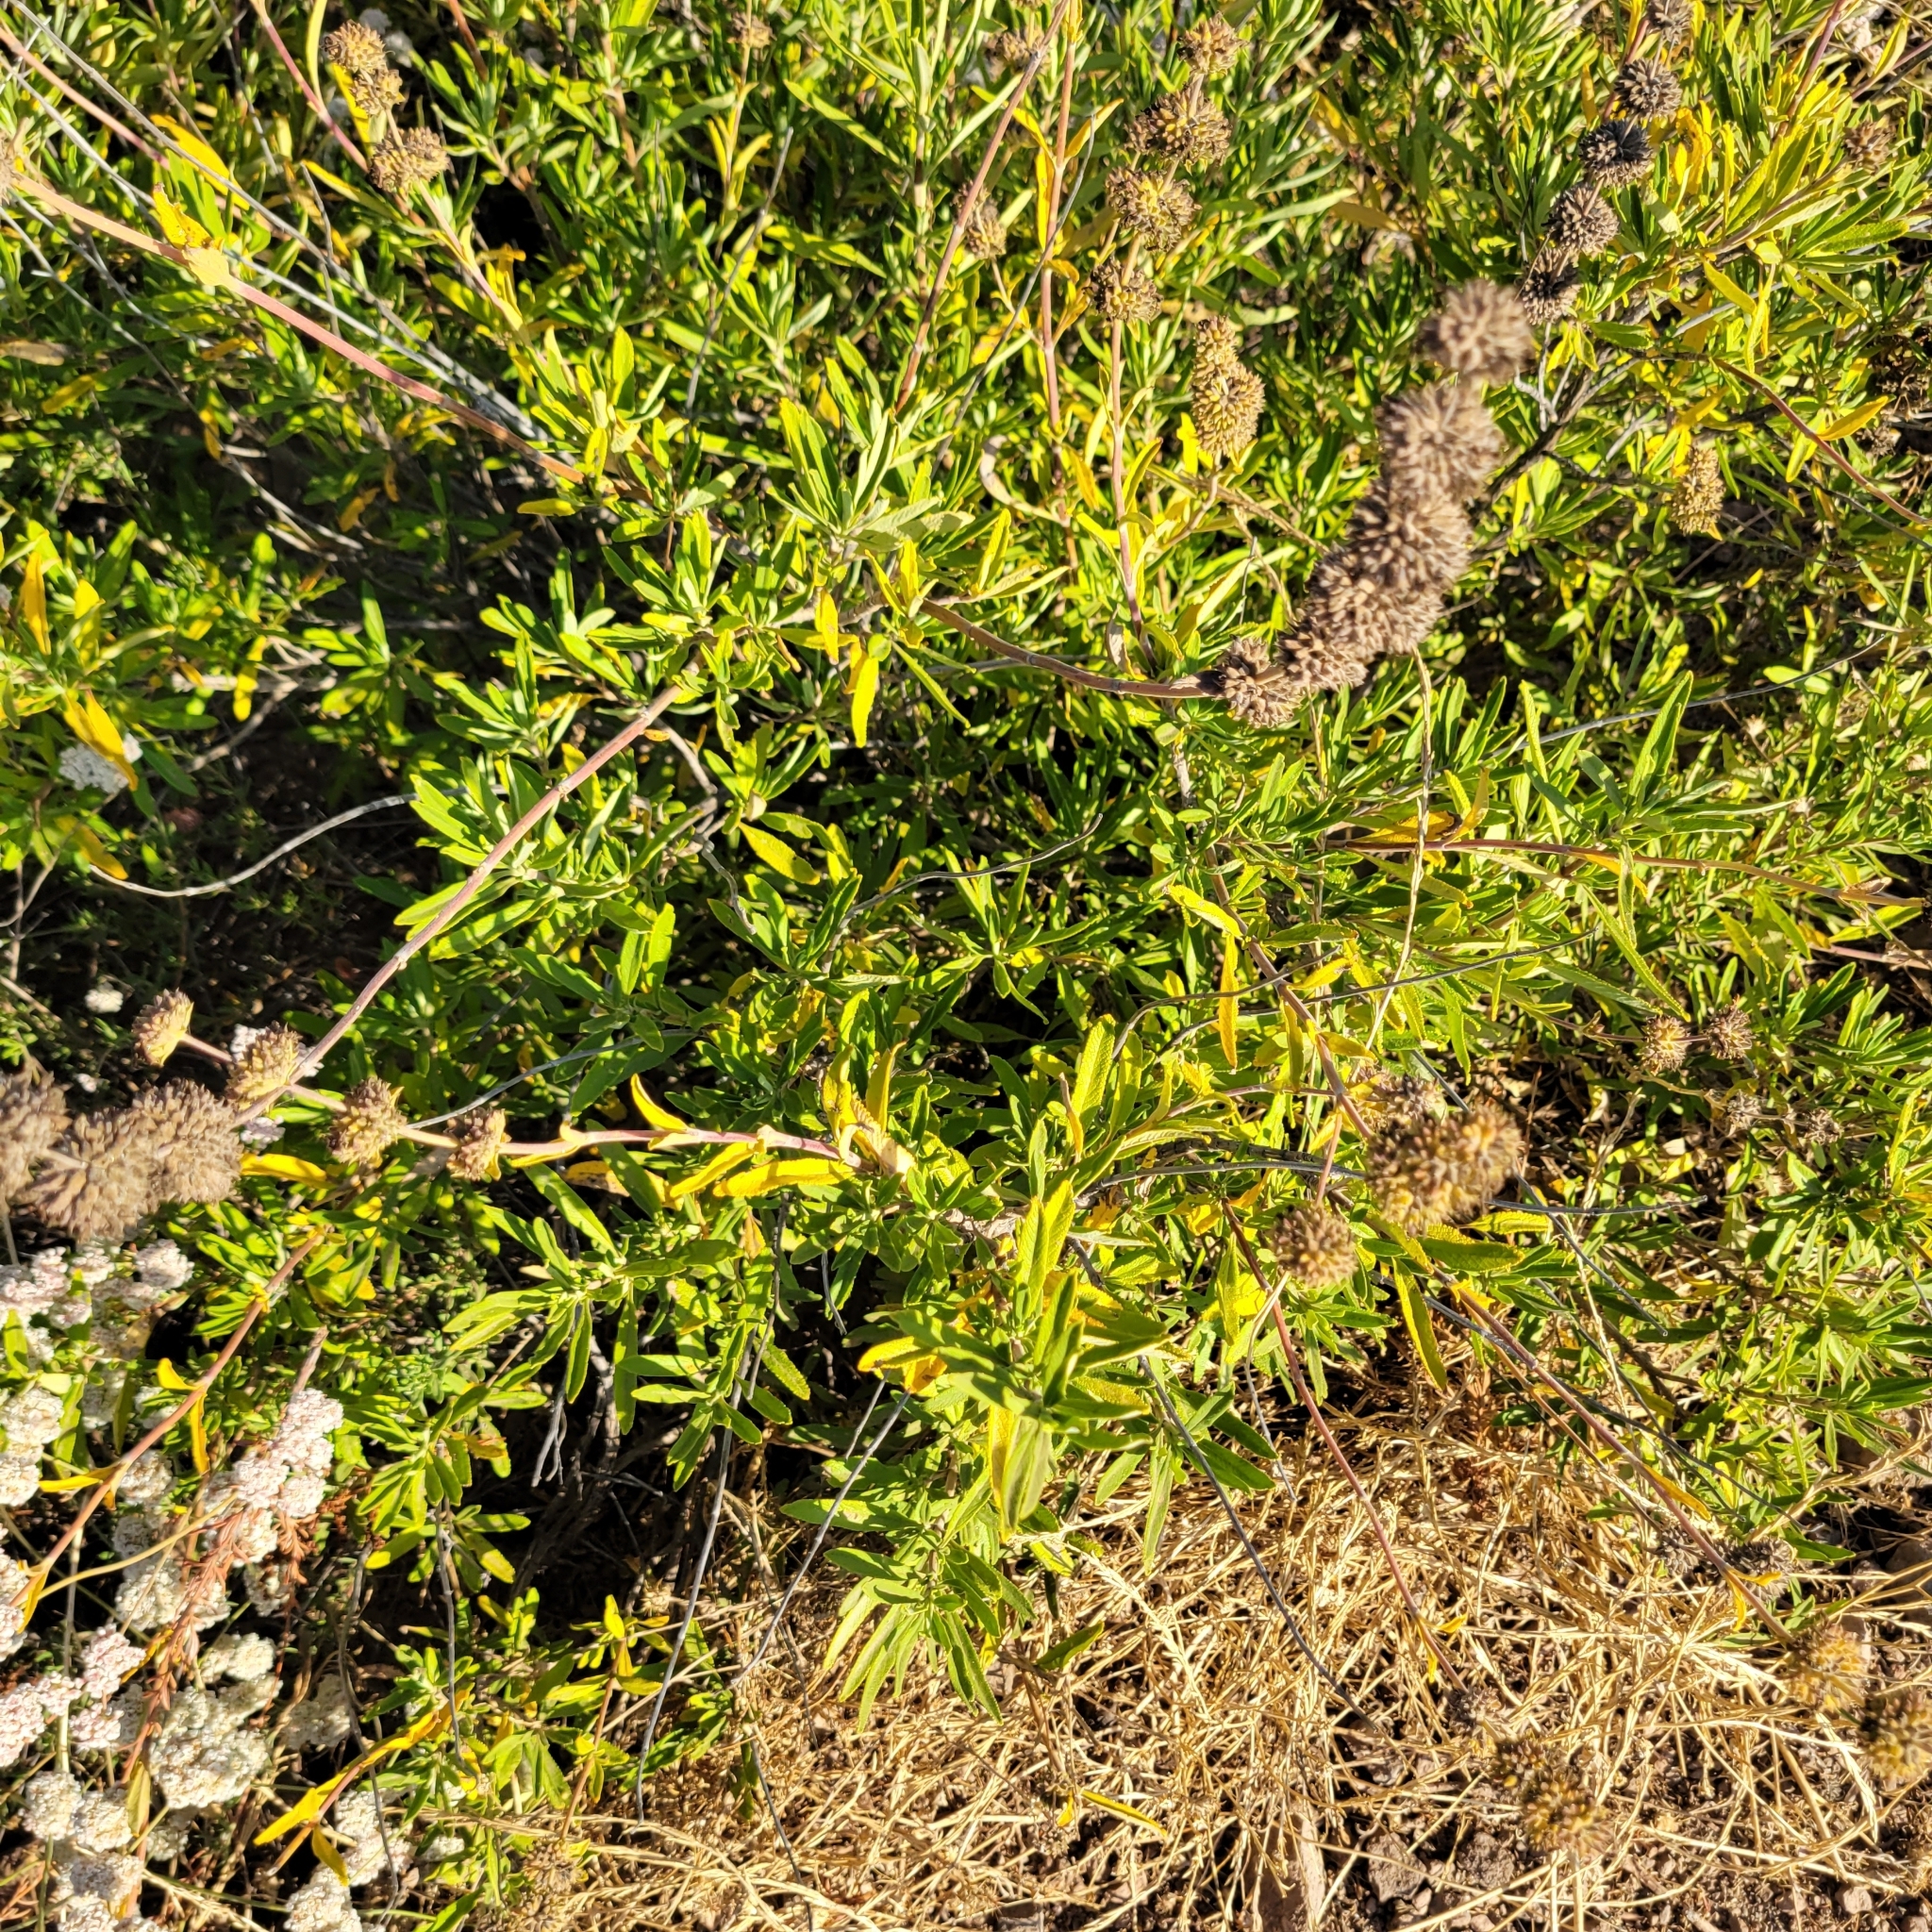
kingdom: Plantae
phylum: Tracheophyta
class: Magnoliopsida
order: Lamiales
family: Lamiaceae
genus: Salvia
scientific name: Salvia mellifera
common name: Black sage
